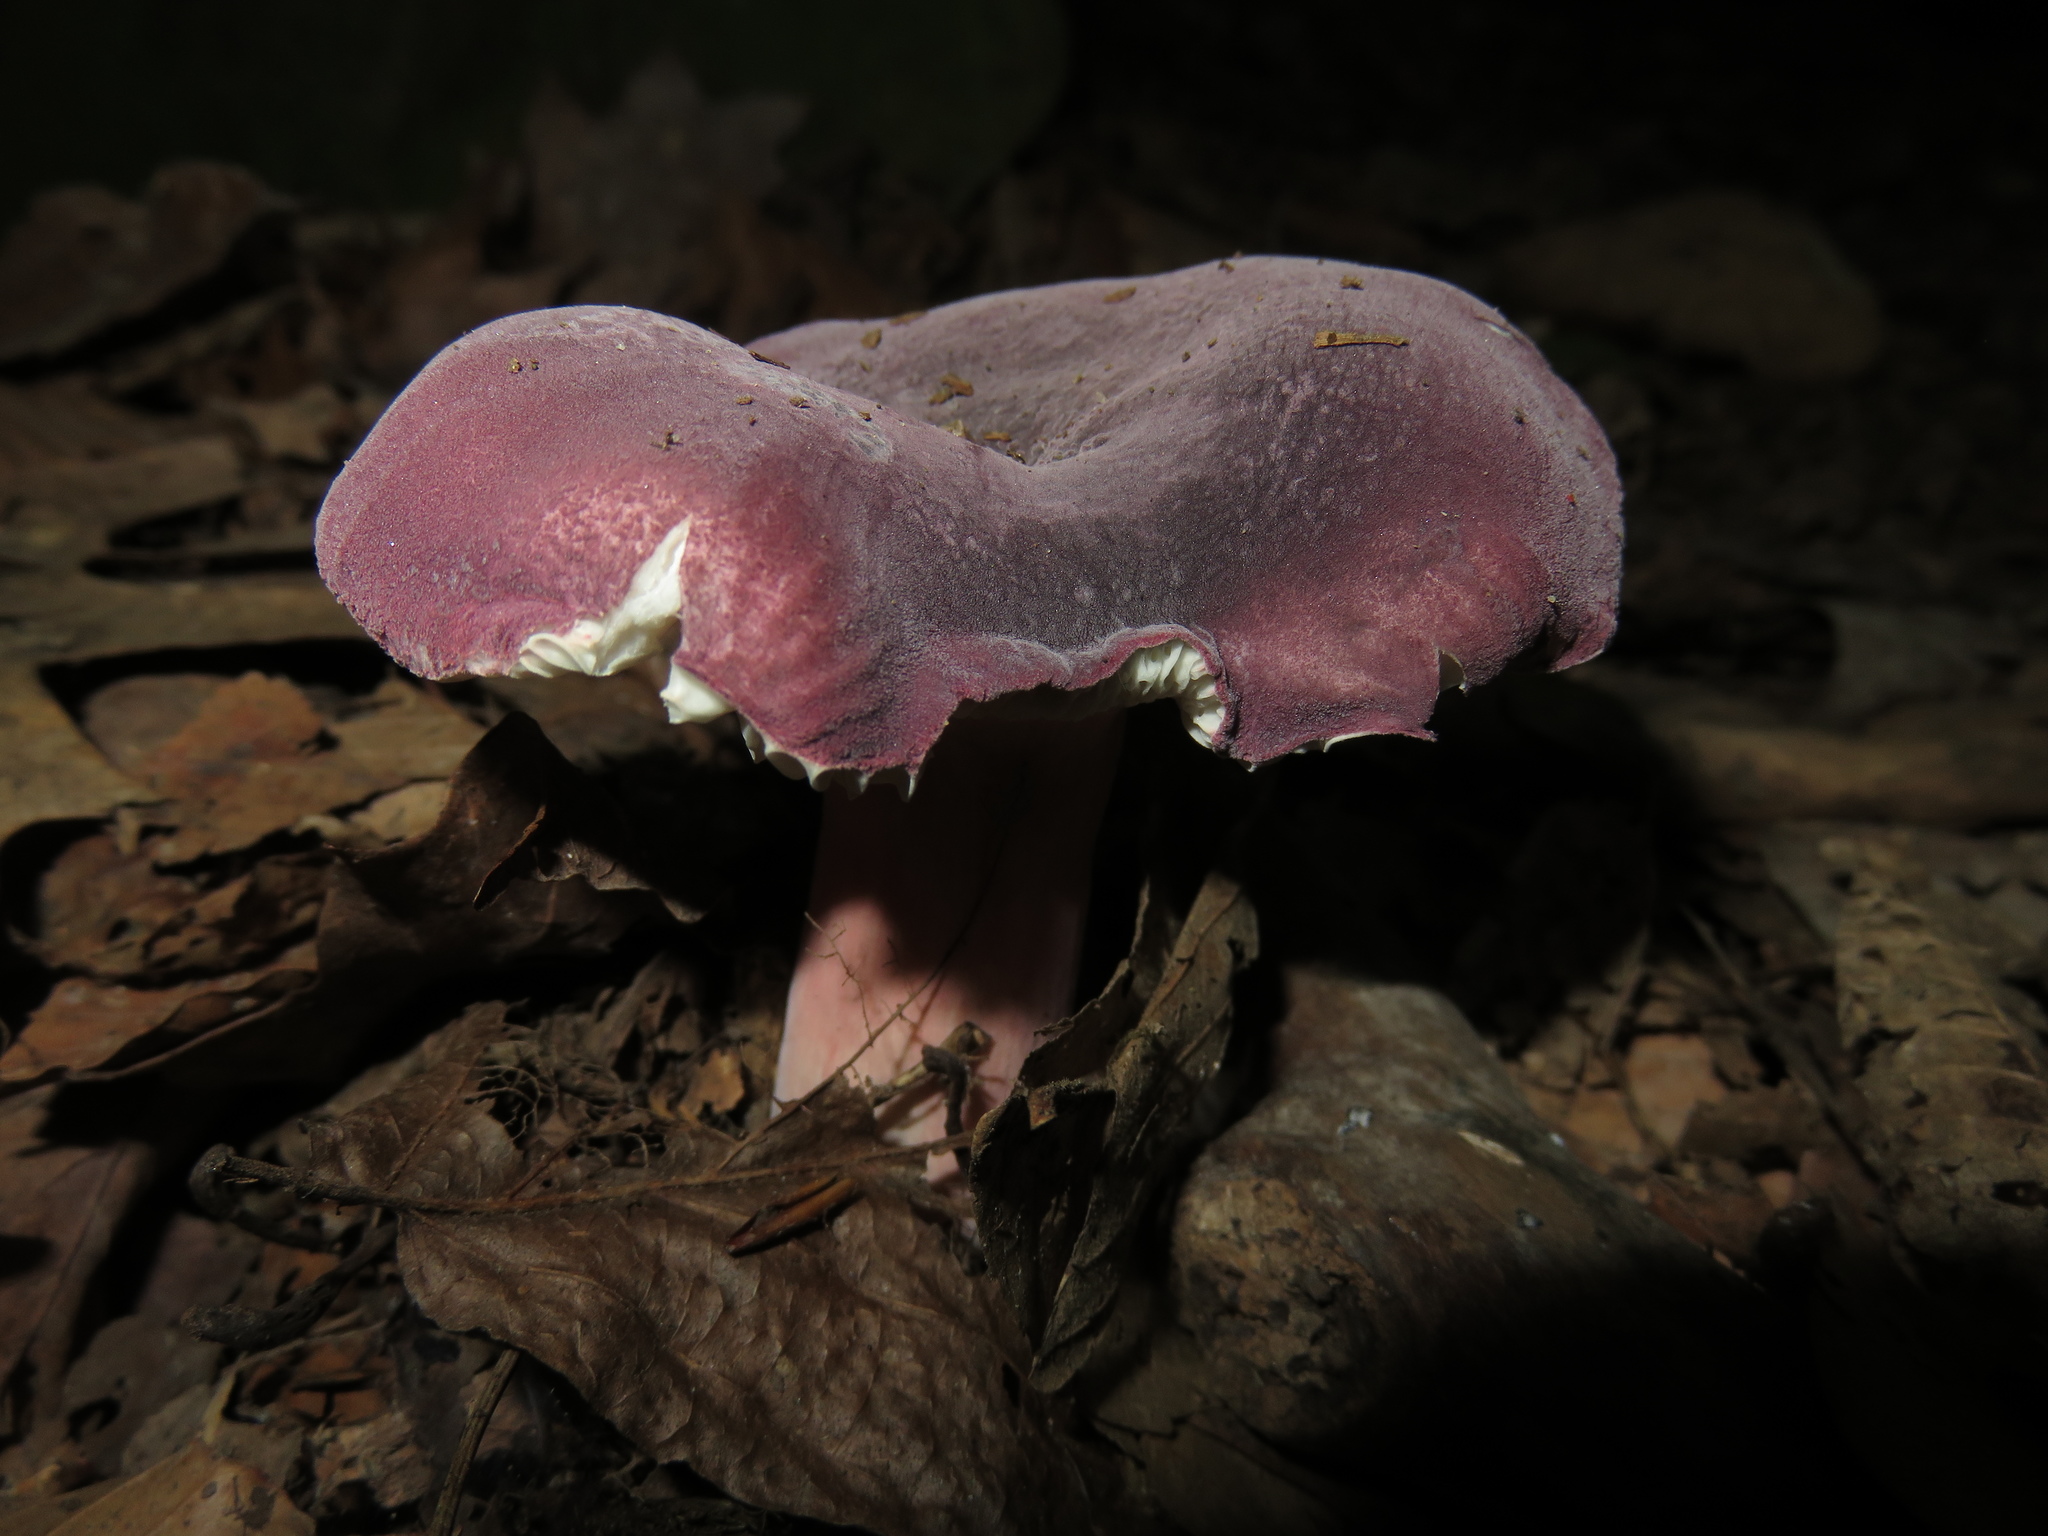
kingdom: Fungi
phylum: Basidiomycota
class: Agaricomycetes
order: Russulales
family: Russulaceae
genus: Russula
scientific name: Russula mariae
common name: Purple-bloom russula
